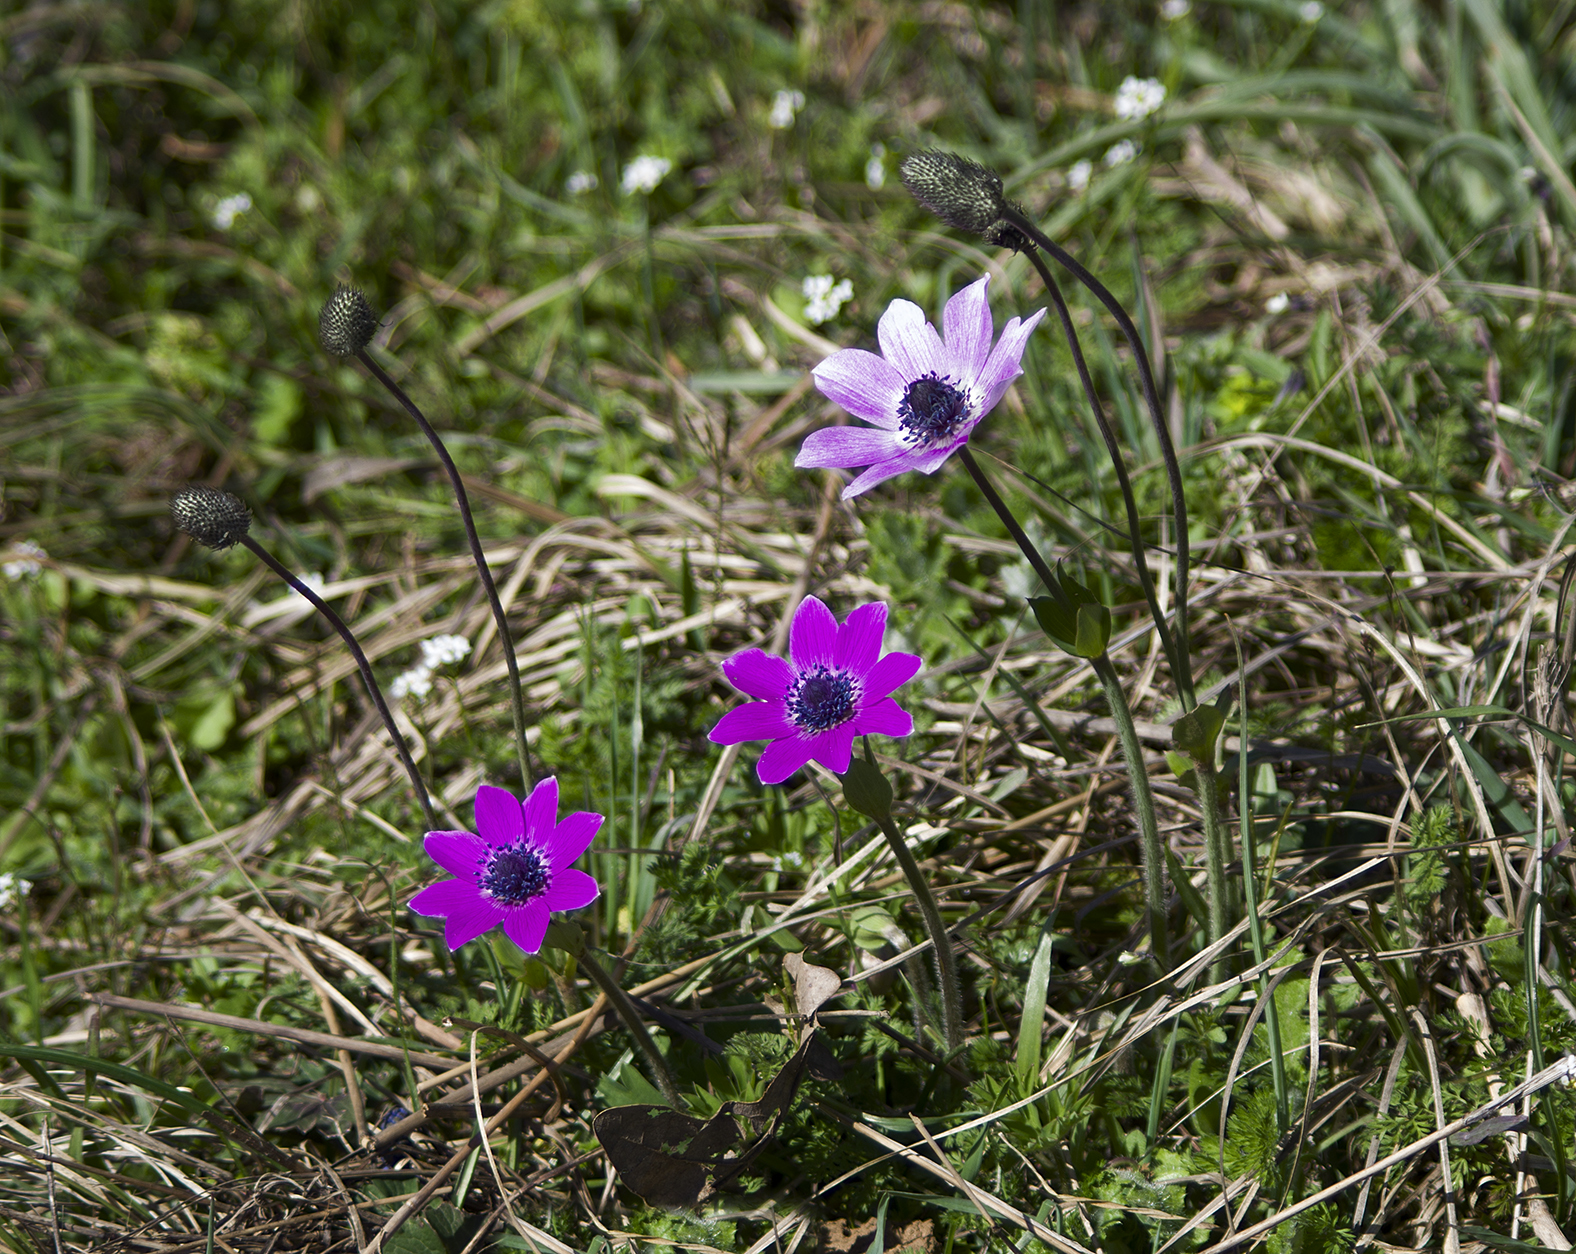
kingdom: Plantae
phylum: Tracheophyta
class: Magnoliopsida
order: Ranunculales
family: Ranunculaceae
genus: Anemone
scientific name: Anemone pavonina
